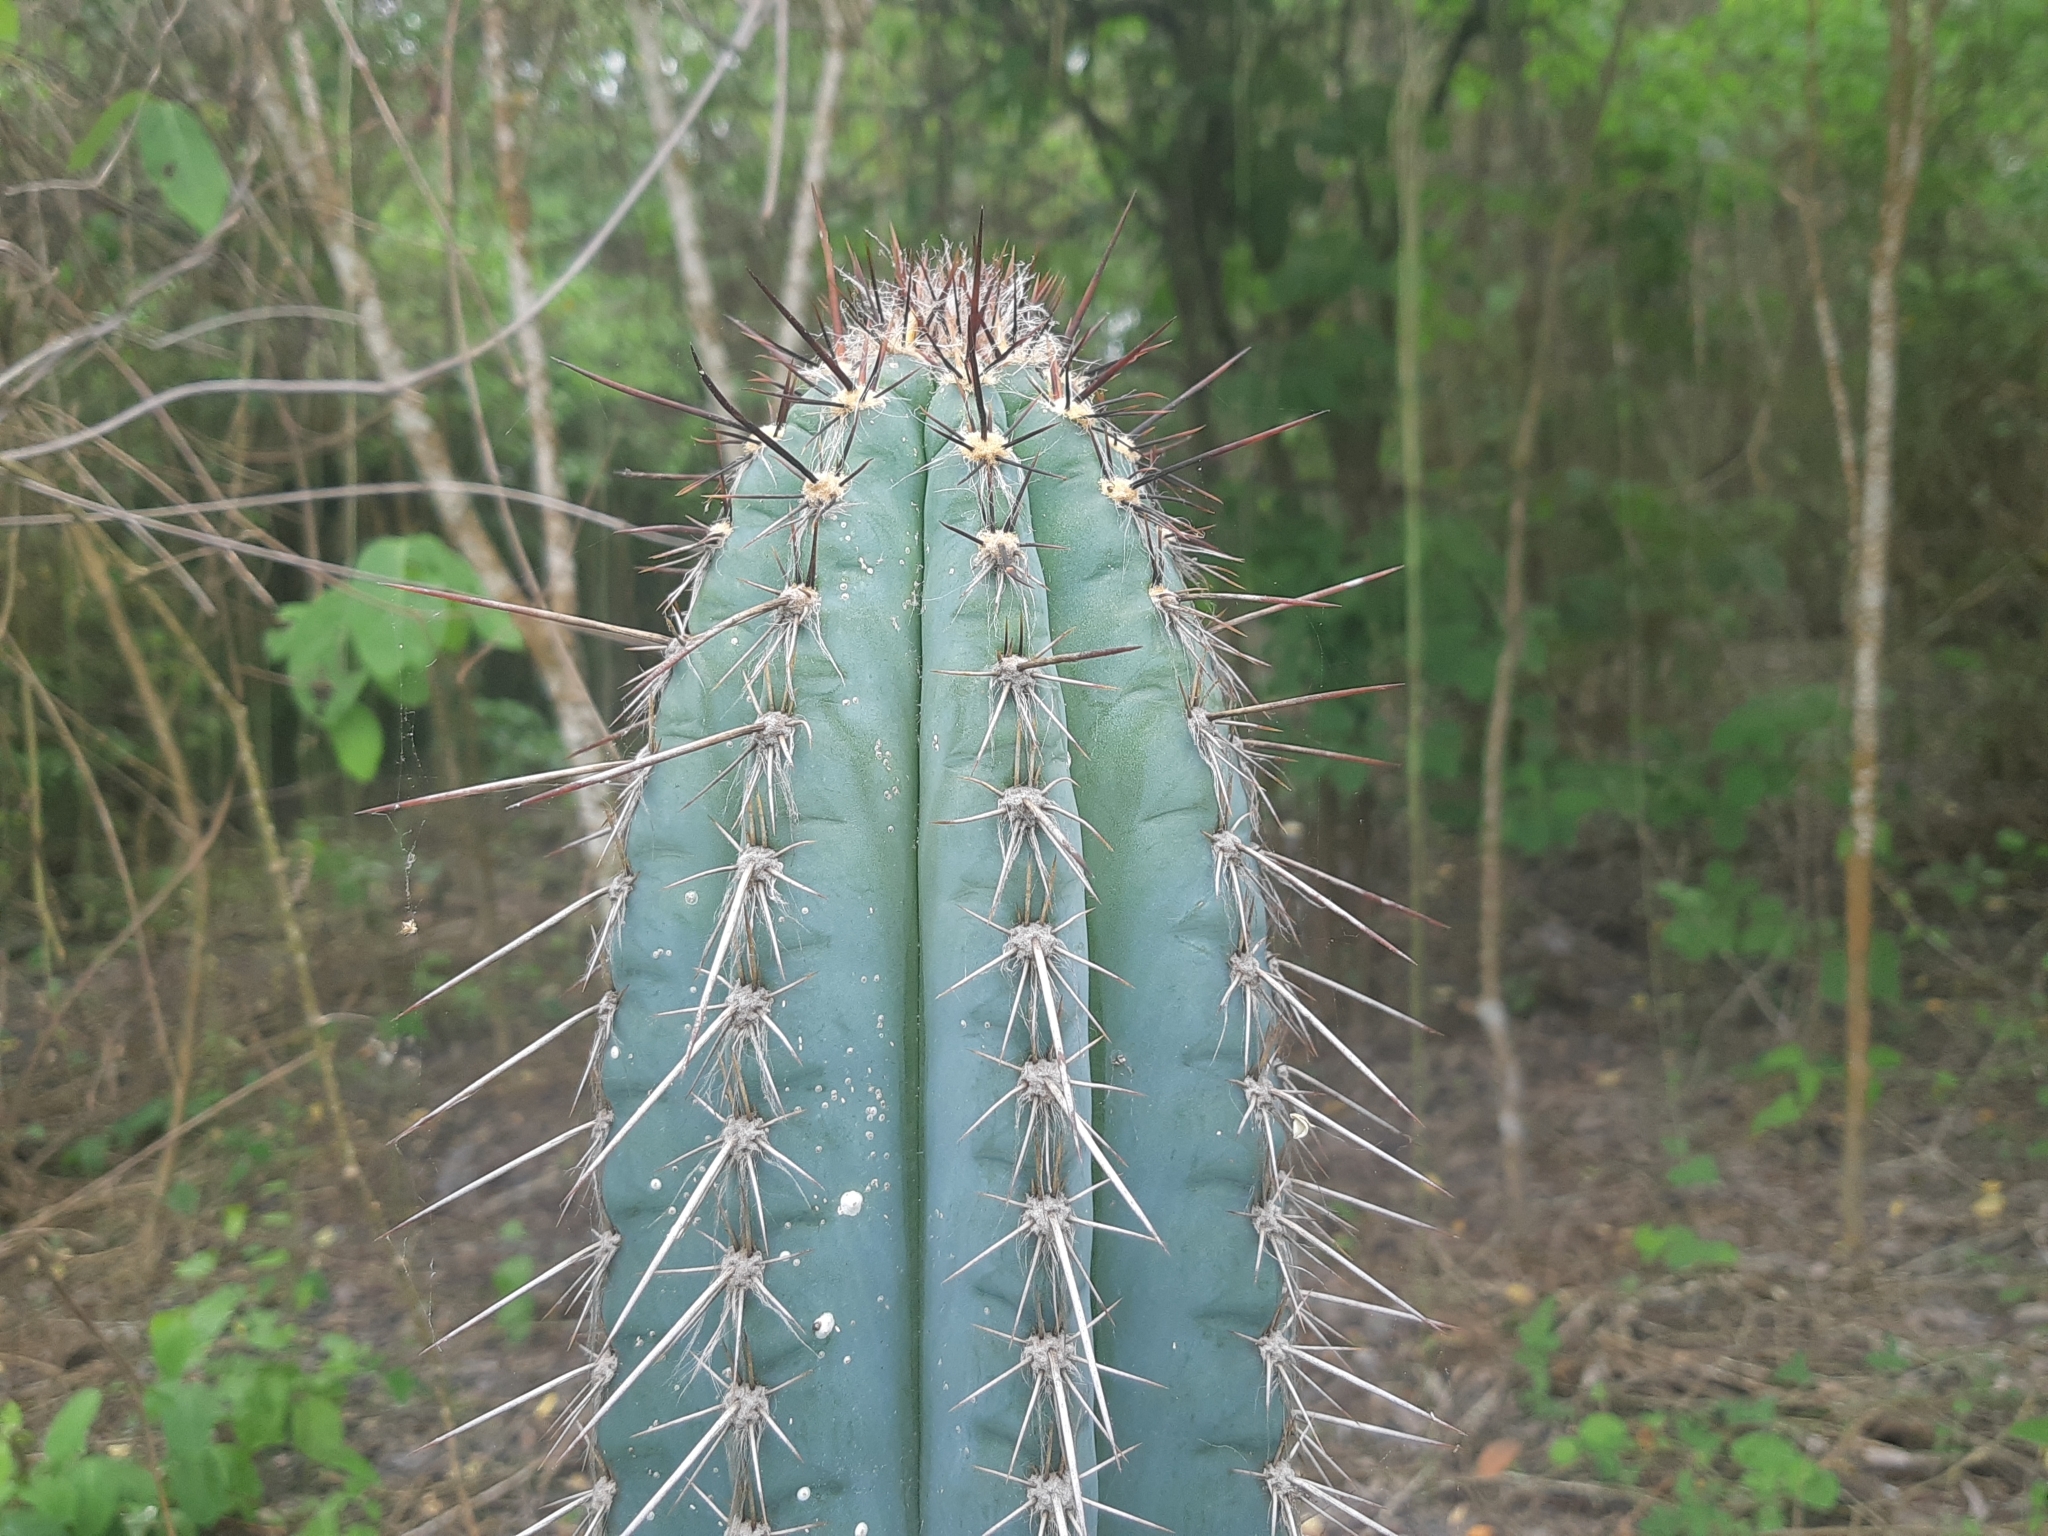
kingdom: Plantae
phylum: Tracheophyta
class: Magnoliopsida
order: Caryophyllales
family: Cactaceae
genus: Pilosocereus
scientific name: Pilosocereus lanuginosus
